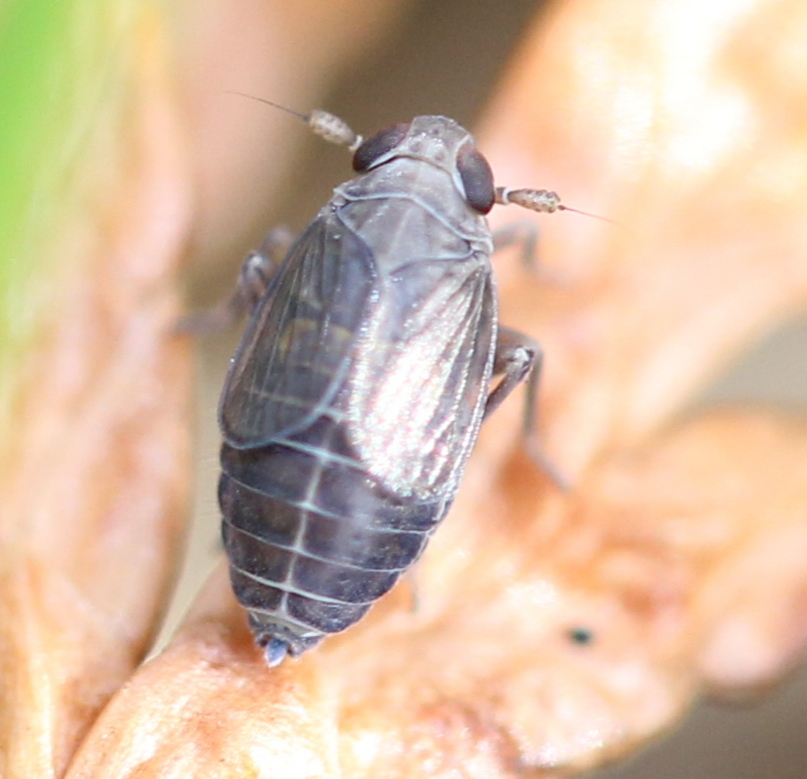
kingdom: Animalia
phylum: Arthropoda
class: Insecta
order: Hemiptera
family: Delphacidae
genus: Kosswigianella
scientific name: Kosswigianella lutulenta
